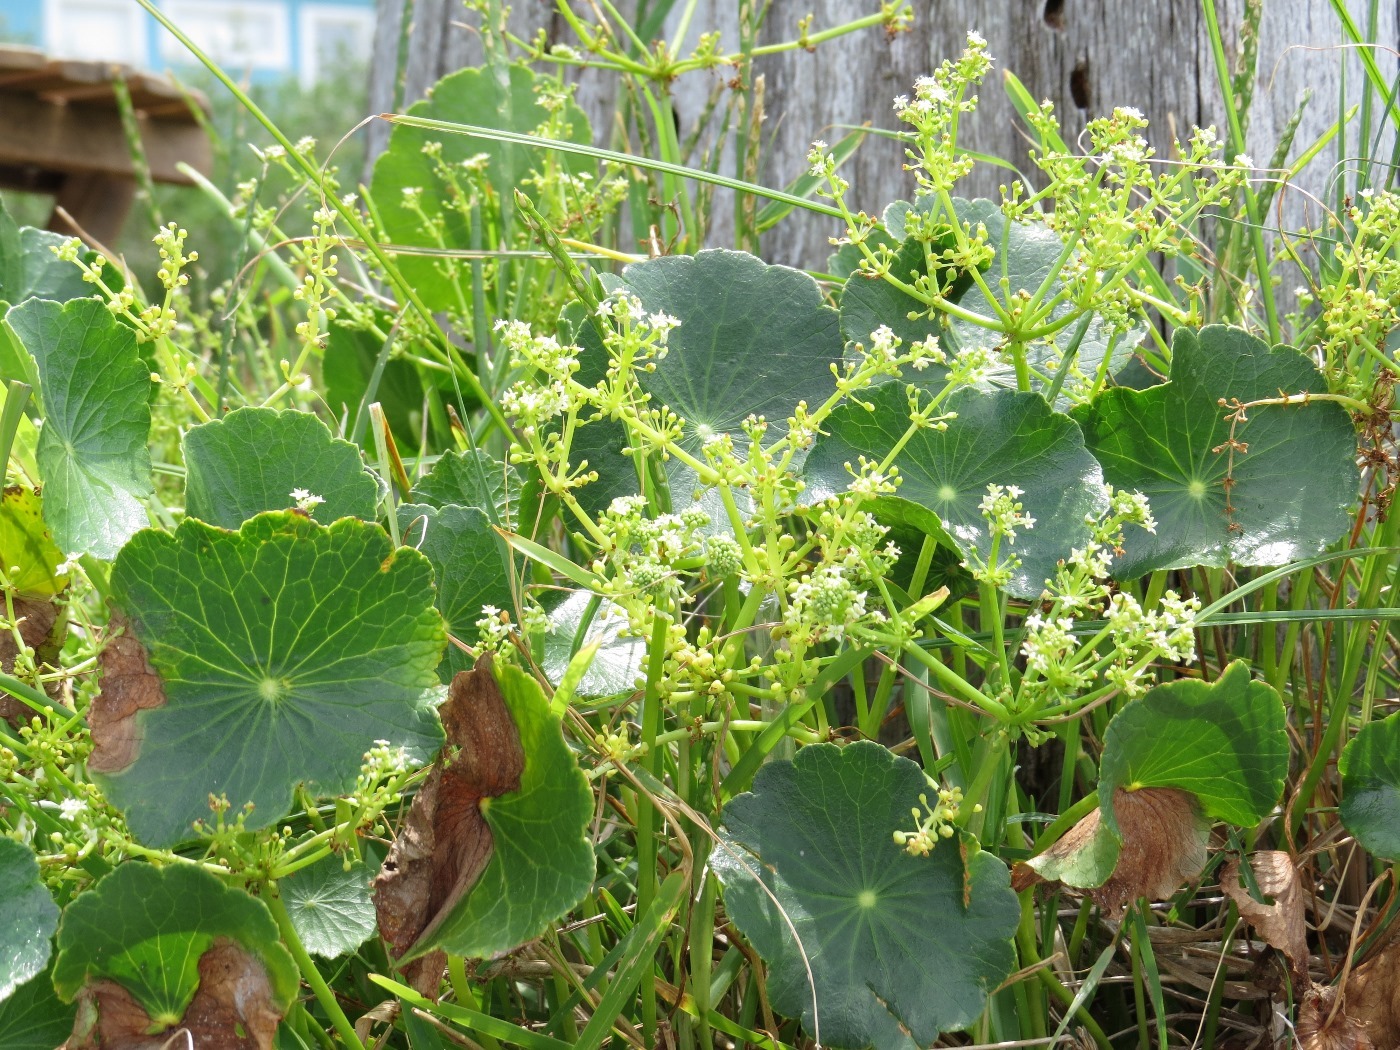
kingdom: Plantae
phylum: Tracheophyta
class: Magnoliopsida
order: Apiales
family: Araliaceae
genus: Hydrocotyle
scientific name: Hydrocotyle bonariensis
